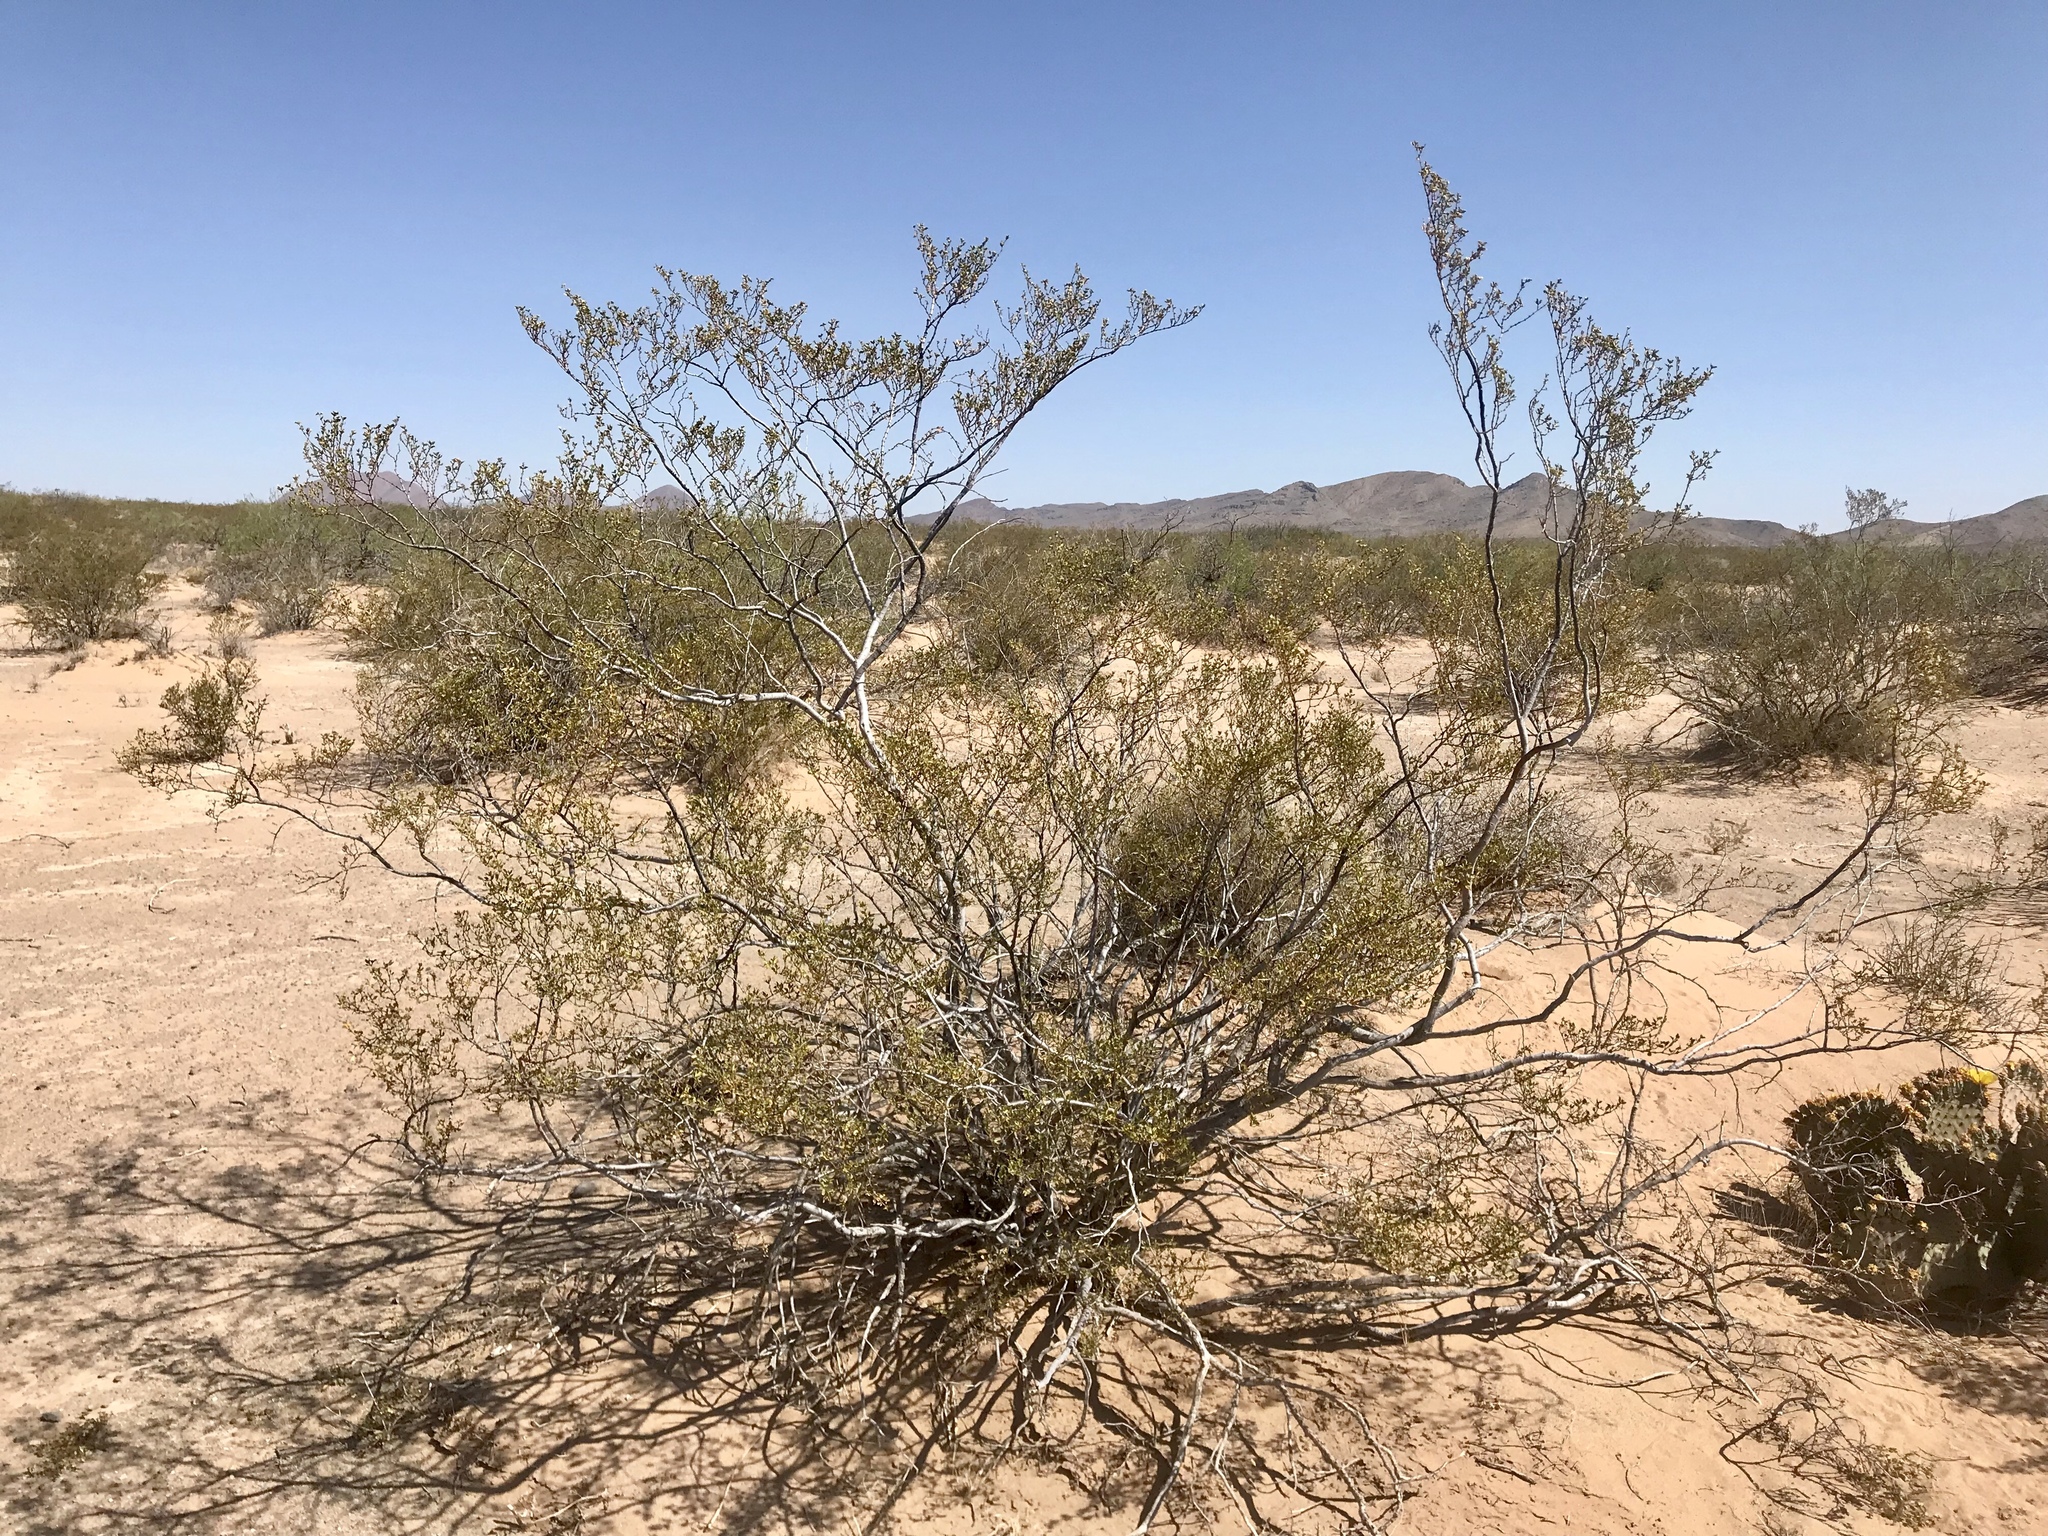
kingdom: Plantae
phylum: Tracheophyta
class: Magnoliopsida
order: Zygophyllales
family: Zygophyllaceae
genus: Larrea
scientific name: Larrea tridentata
